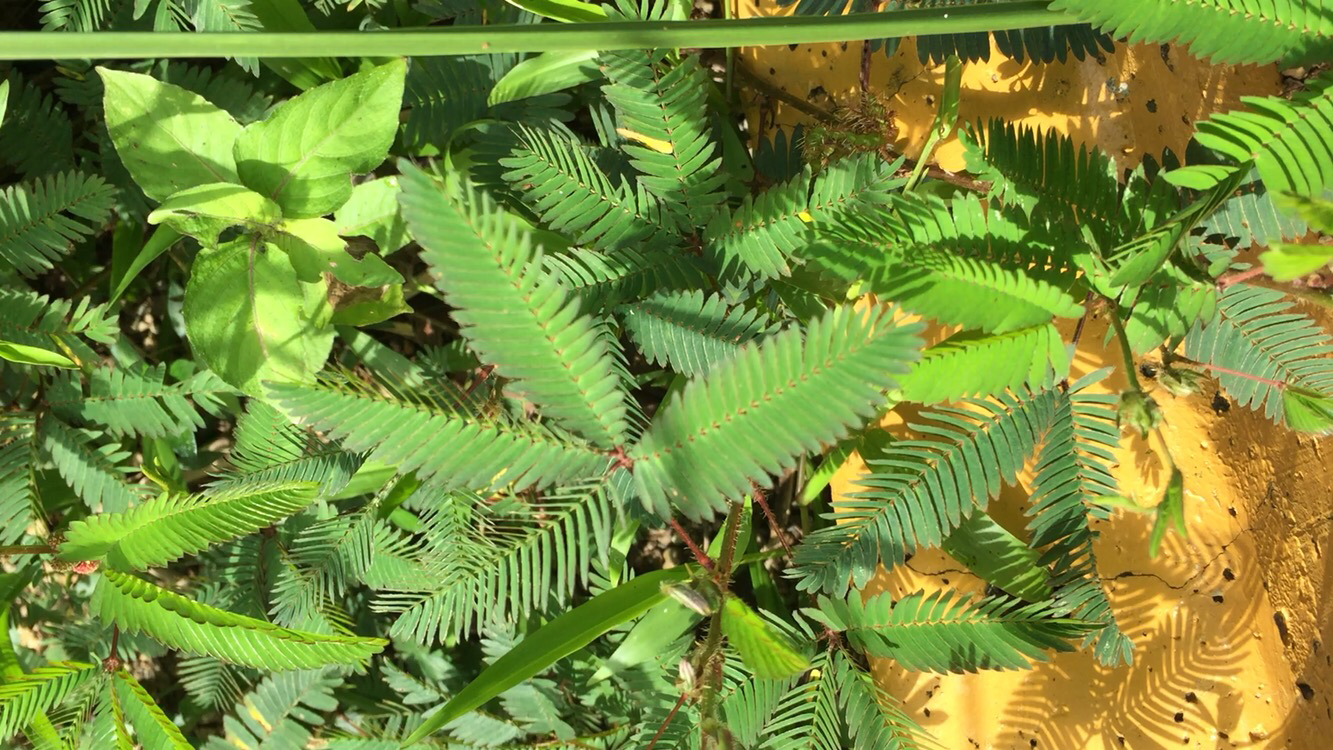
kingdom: Plantae
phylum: Tracheophyta
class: Magnoliopsida
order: Fabales
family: Fabaceae
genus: Mimosa
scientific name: Mimosa pudica
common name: Sensitive plant
